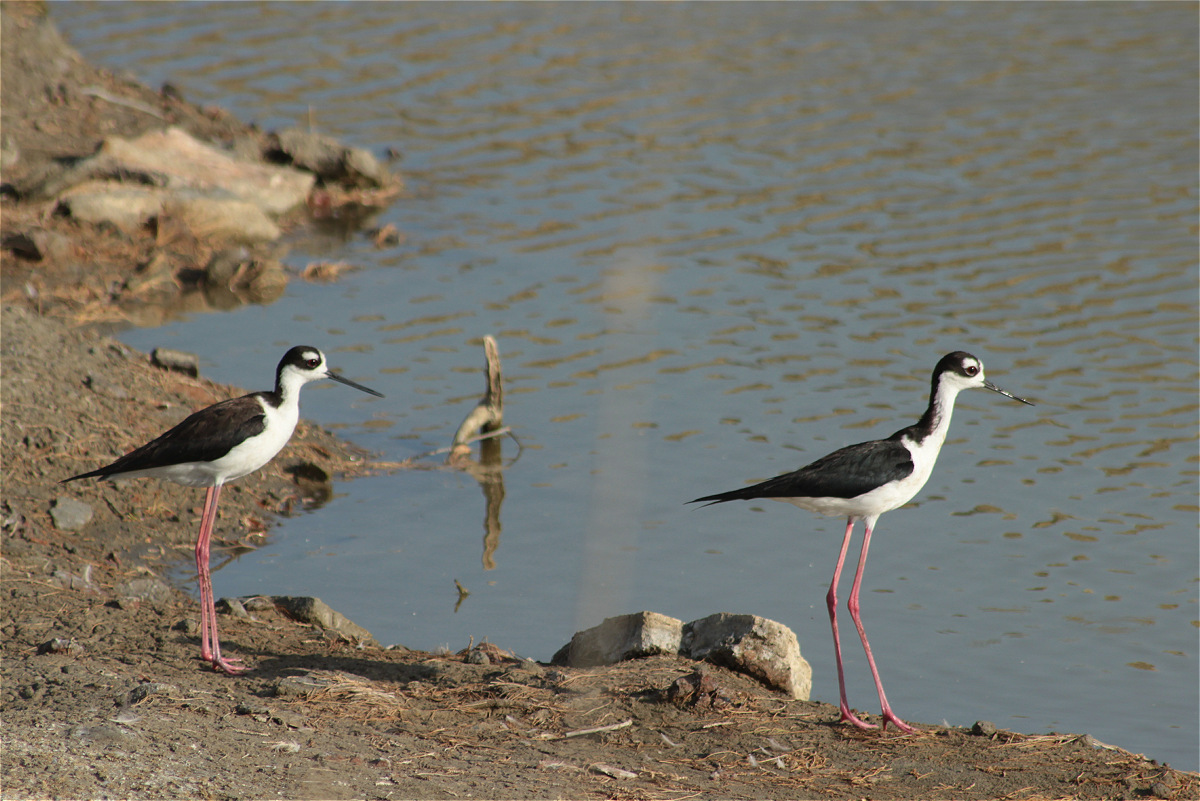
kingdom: Animalia
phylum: Chordata
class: Aves
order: Charadriiformes
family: Recurvirostridae
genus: Himantopus
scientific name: Himantopus mexicanus
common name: Black-necked stilt
